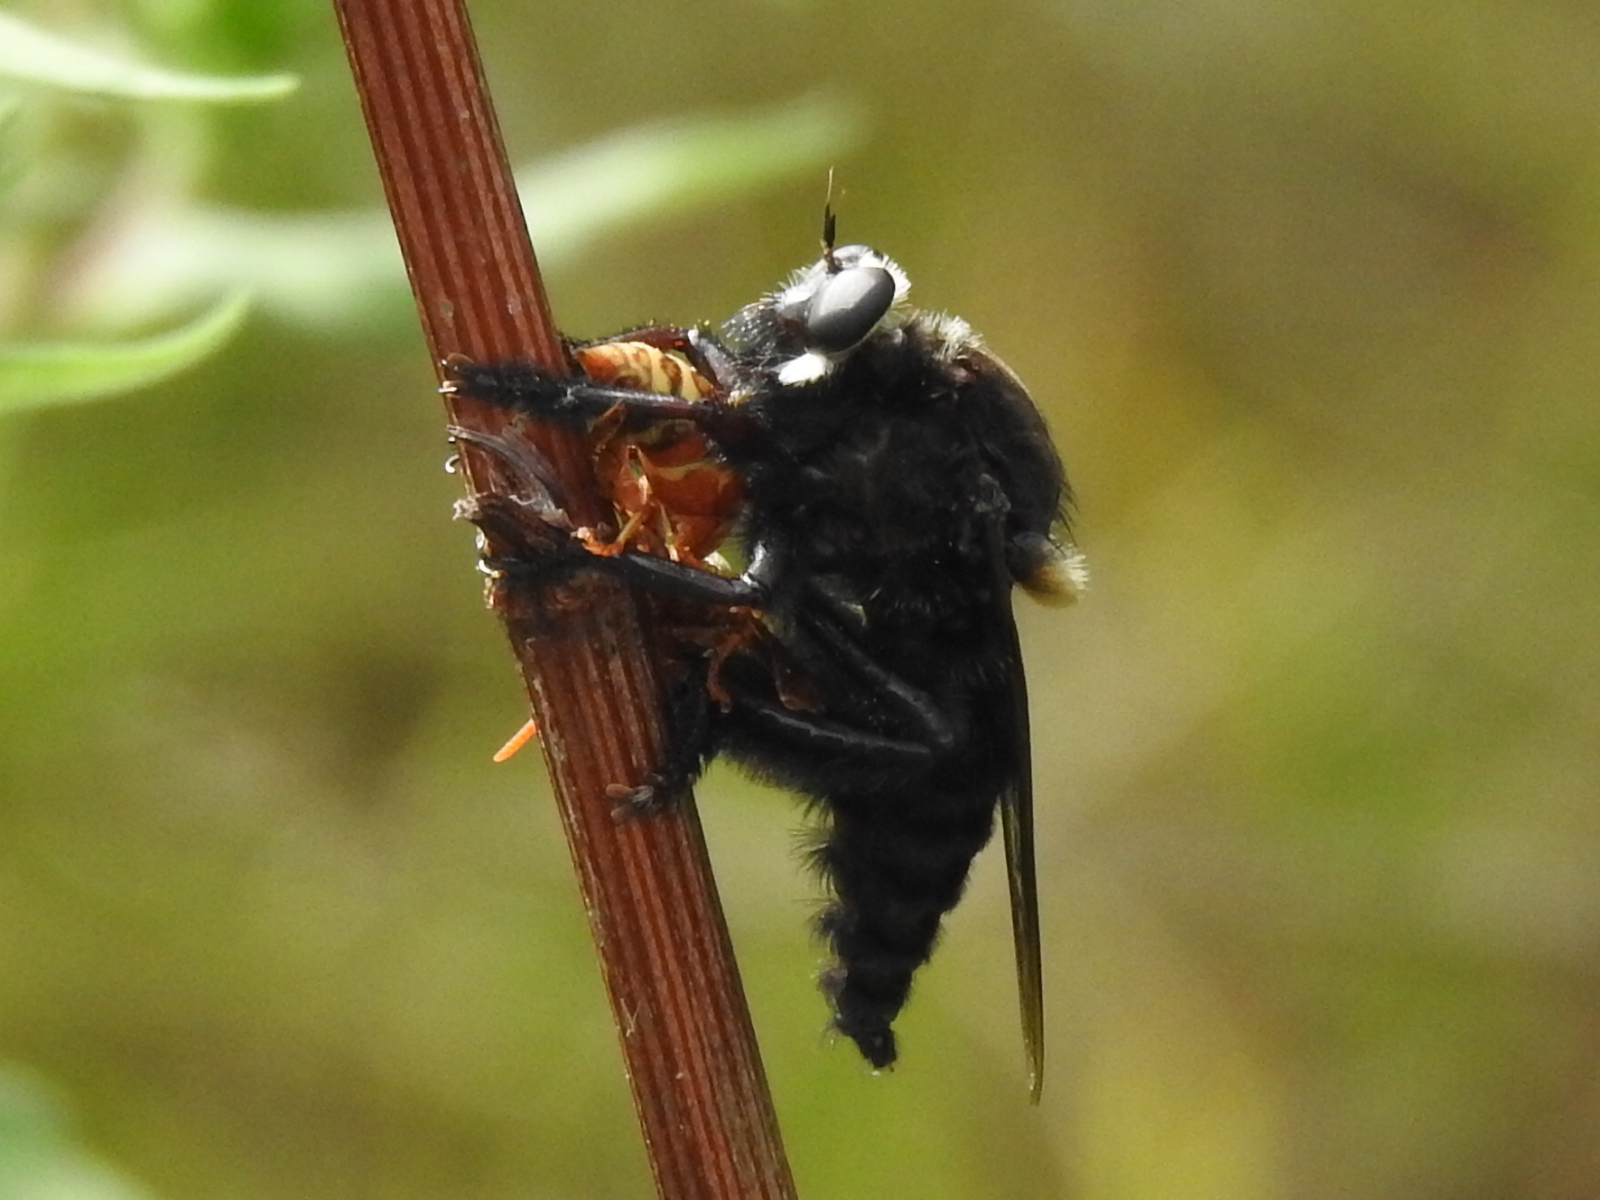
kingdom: Animalia
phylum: Arthropoda
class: Insecta
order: Diptera
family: Asilidae
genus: Mallophora
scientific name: Mallophora leschenaultii
